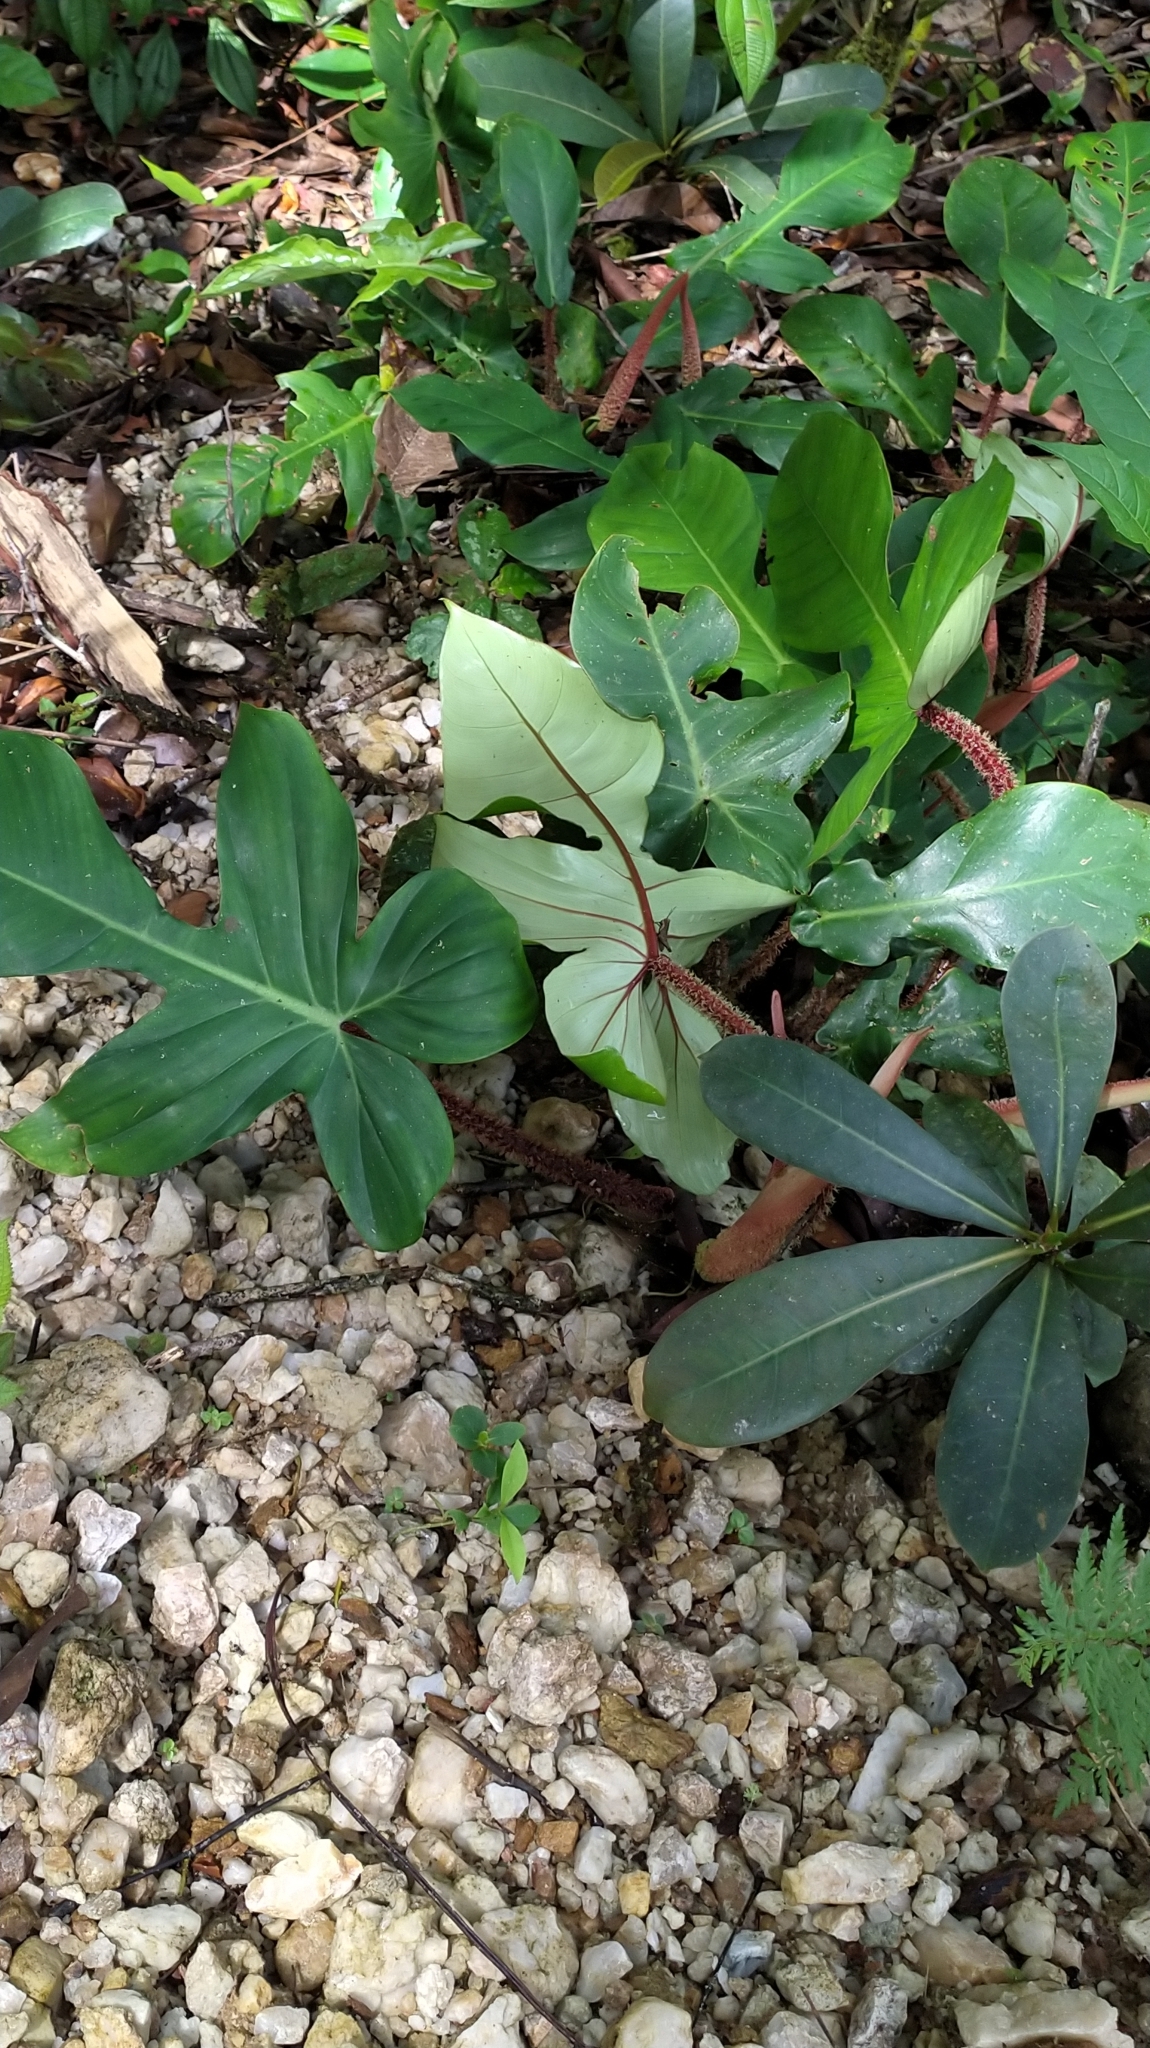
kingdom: Plantae
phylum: Tracheophyta
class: Liliopsida
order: Alismatales
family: Araceae
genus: Philodendron
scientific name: Philodendron squamiferum
